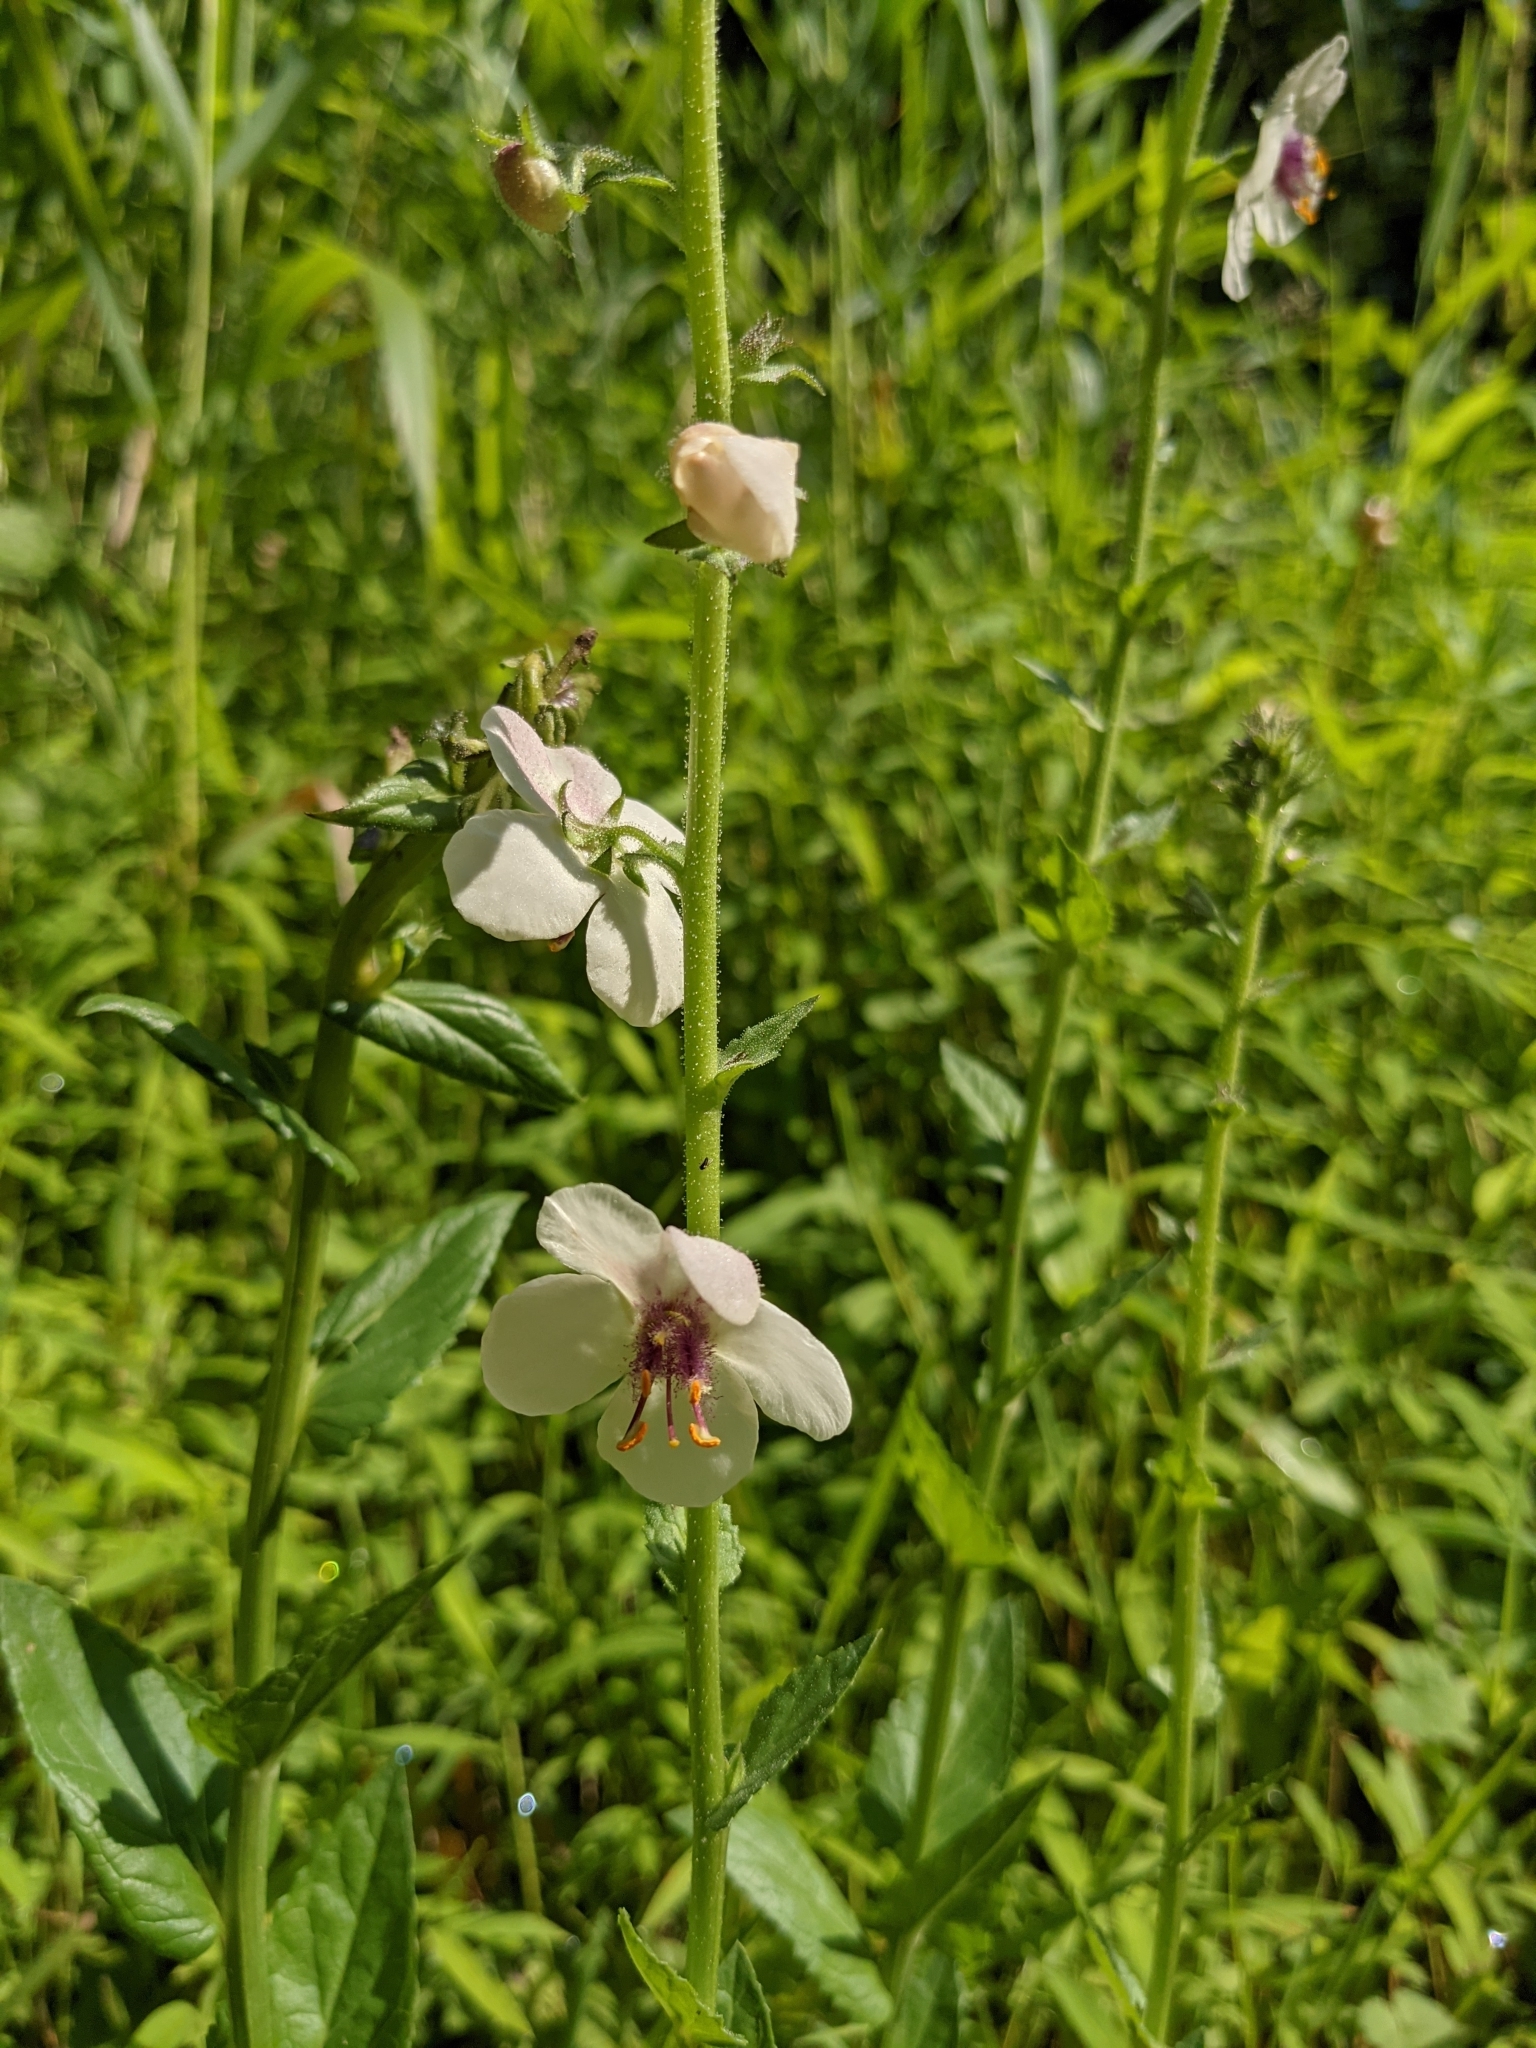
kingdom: Plantae
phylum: Tracheophyta
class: Magnoliopsida
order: Lamiales
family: Scrophulariaceae
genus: Verbascum
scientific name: Verbascum blattaria
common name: Moth mullein
